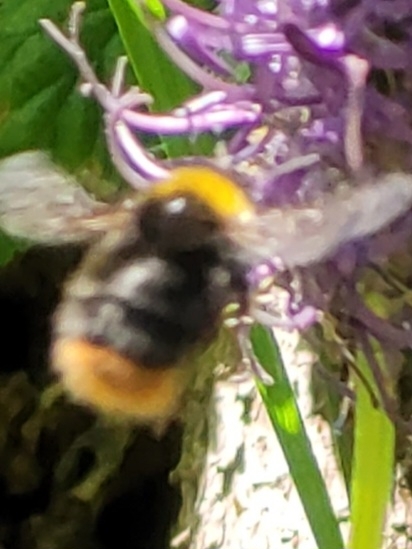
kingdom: Animalia
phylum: Arthropoda
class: Insecta
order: Hymenoptera
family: Apidae
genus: Bombus
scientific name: Bombus pratorum
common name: Early humble-bee
